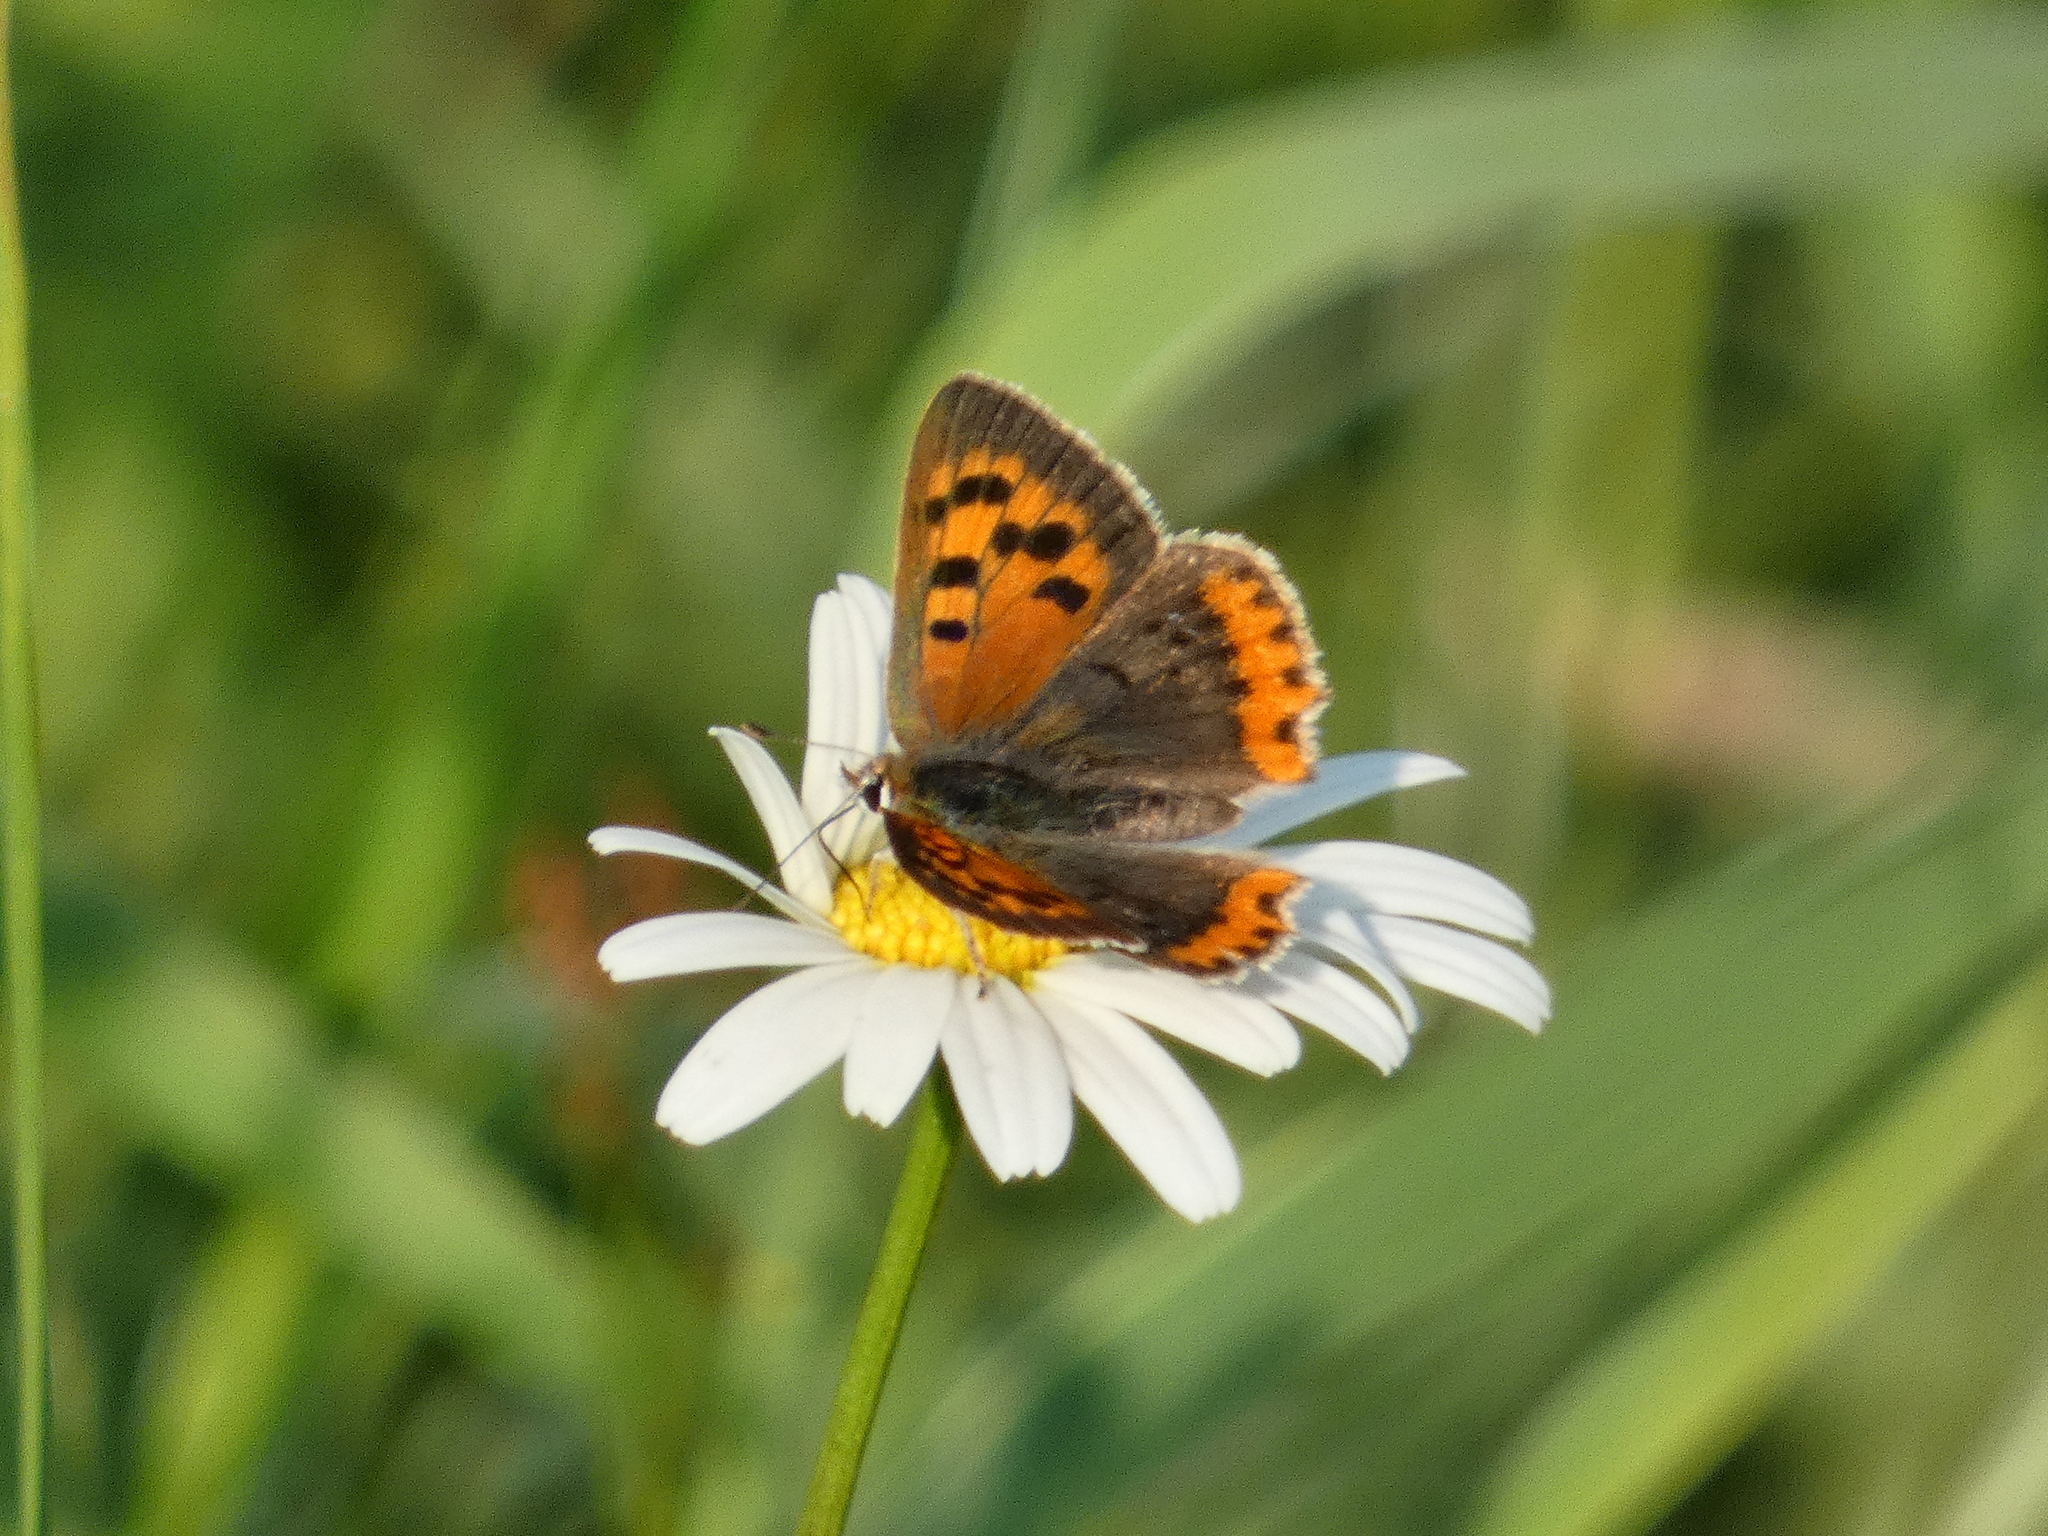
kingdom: Animalia
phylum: Arthropoda
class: Insecta
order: Lepidoptera
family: Lycaenidae
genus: Lycaena
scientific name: Lycaena phlaeas
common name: Small copper
